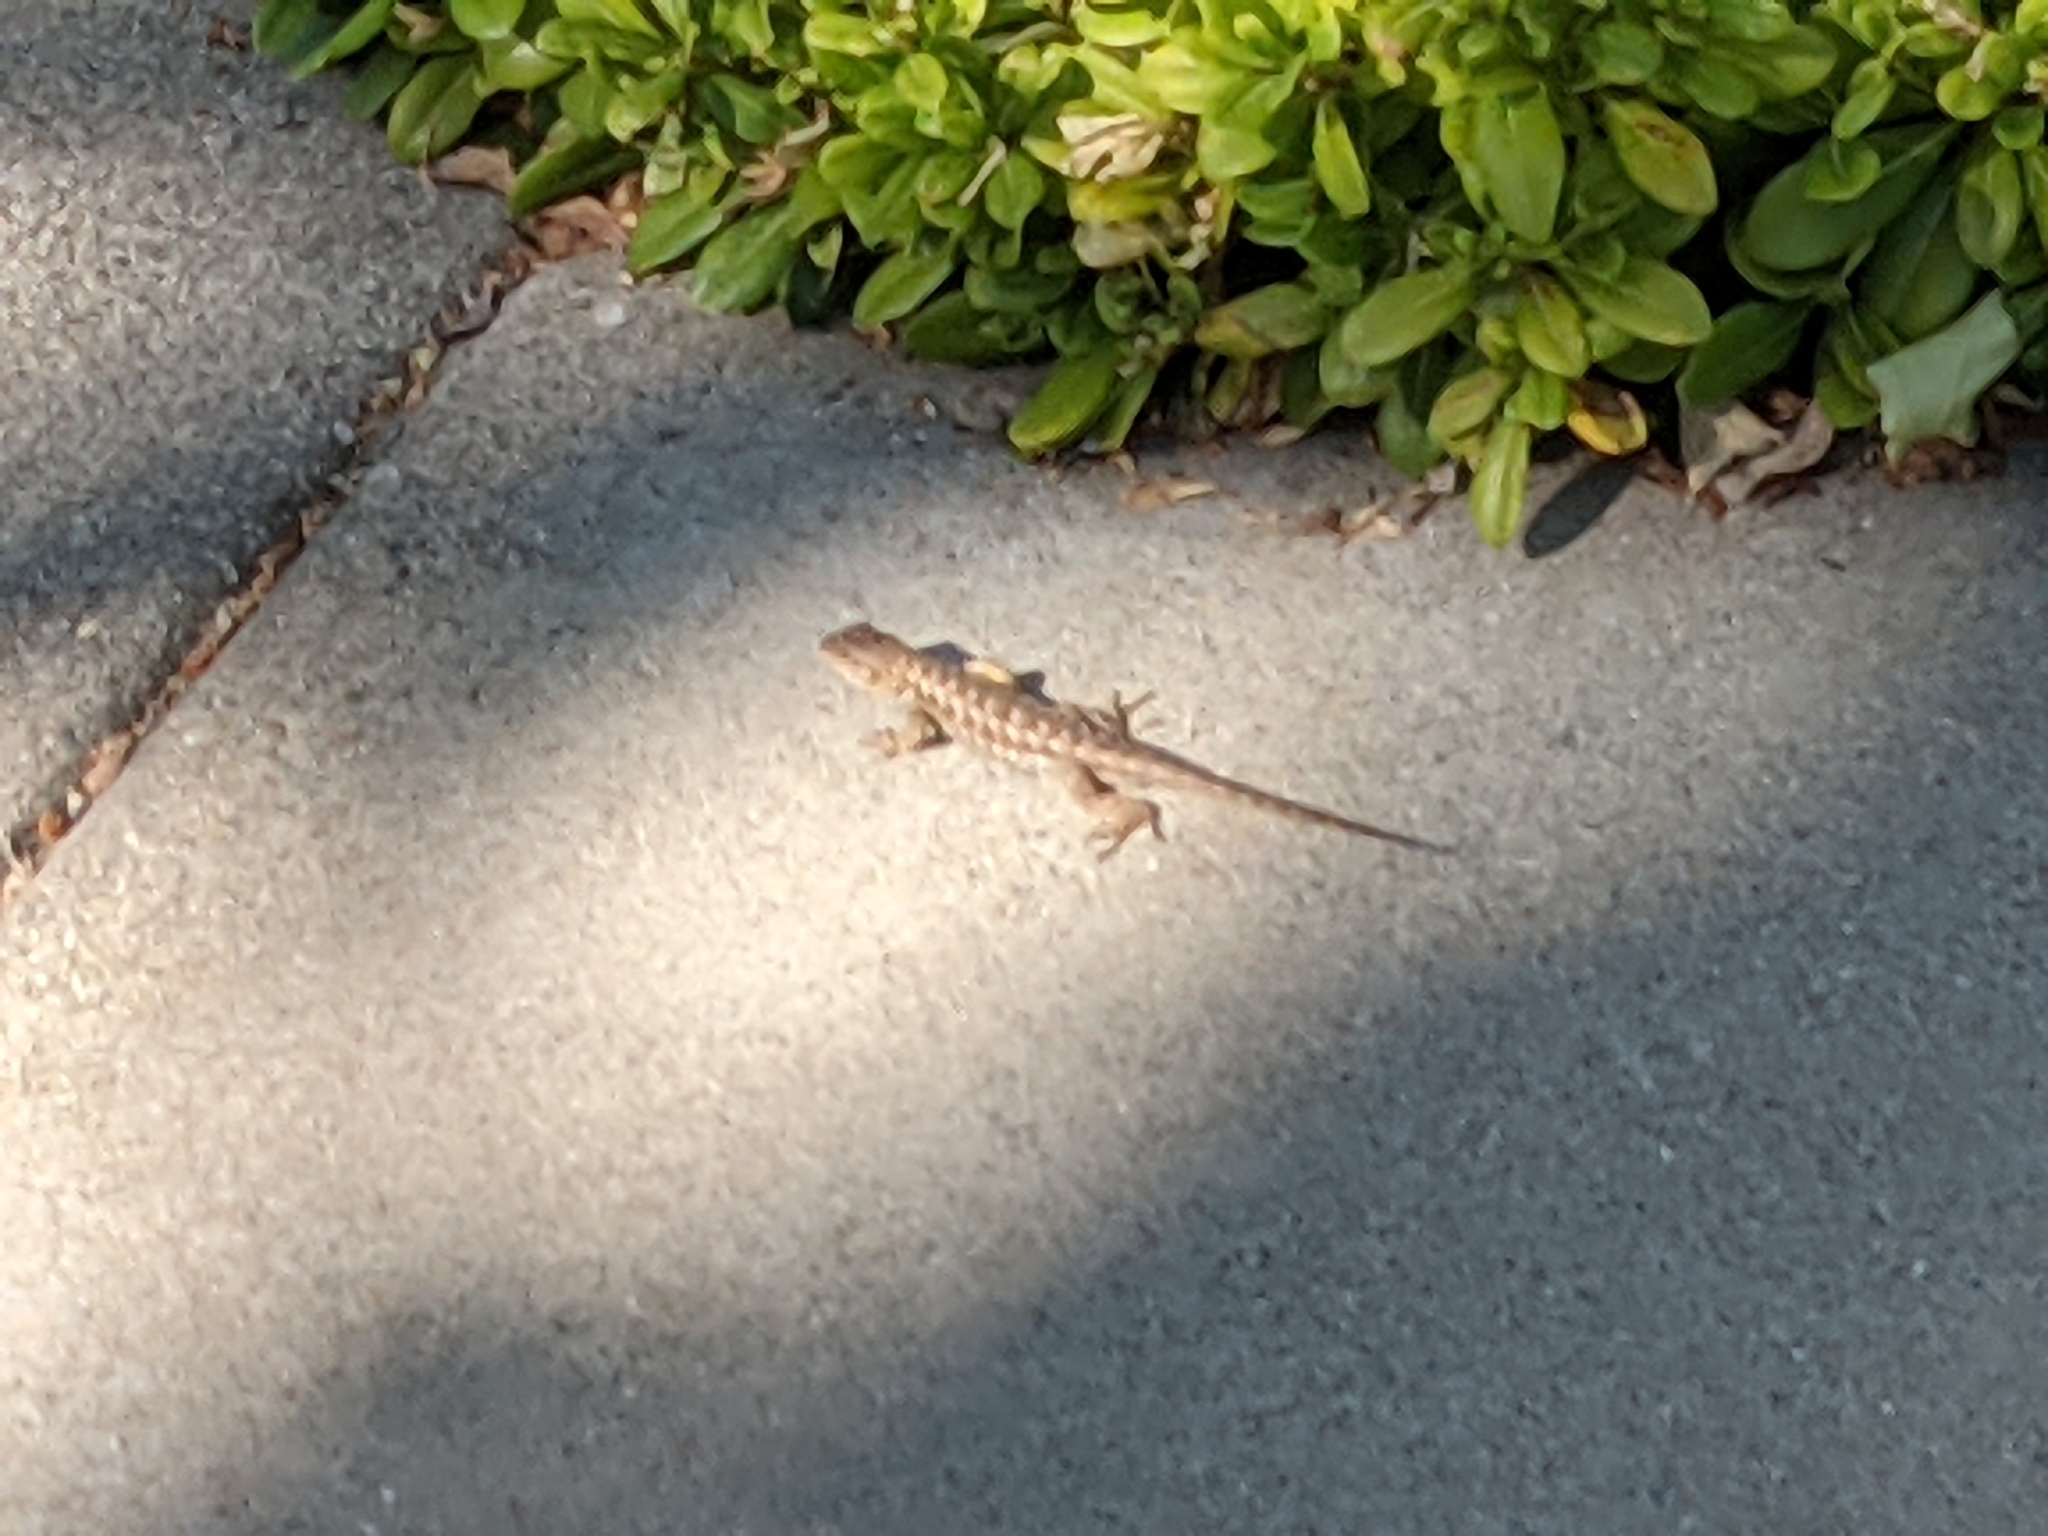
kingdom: Animalia
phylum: Chordata
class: Squamata
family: Phrynosomatidae
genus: Sceloporus
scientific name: Sceloporus occidentalis
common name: Western fence lizard
